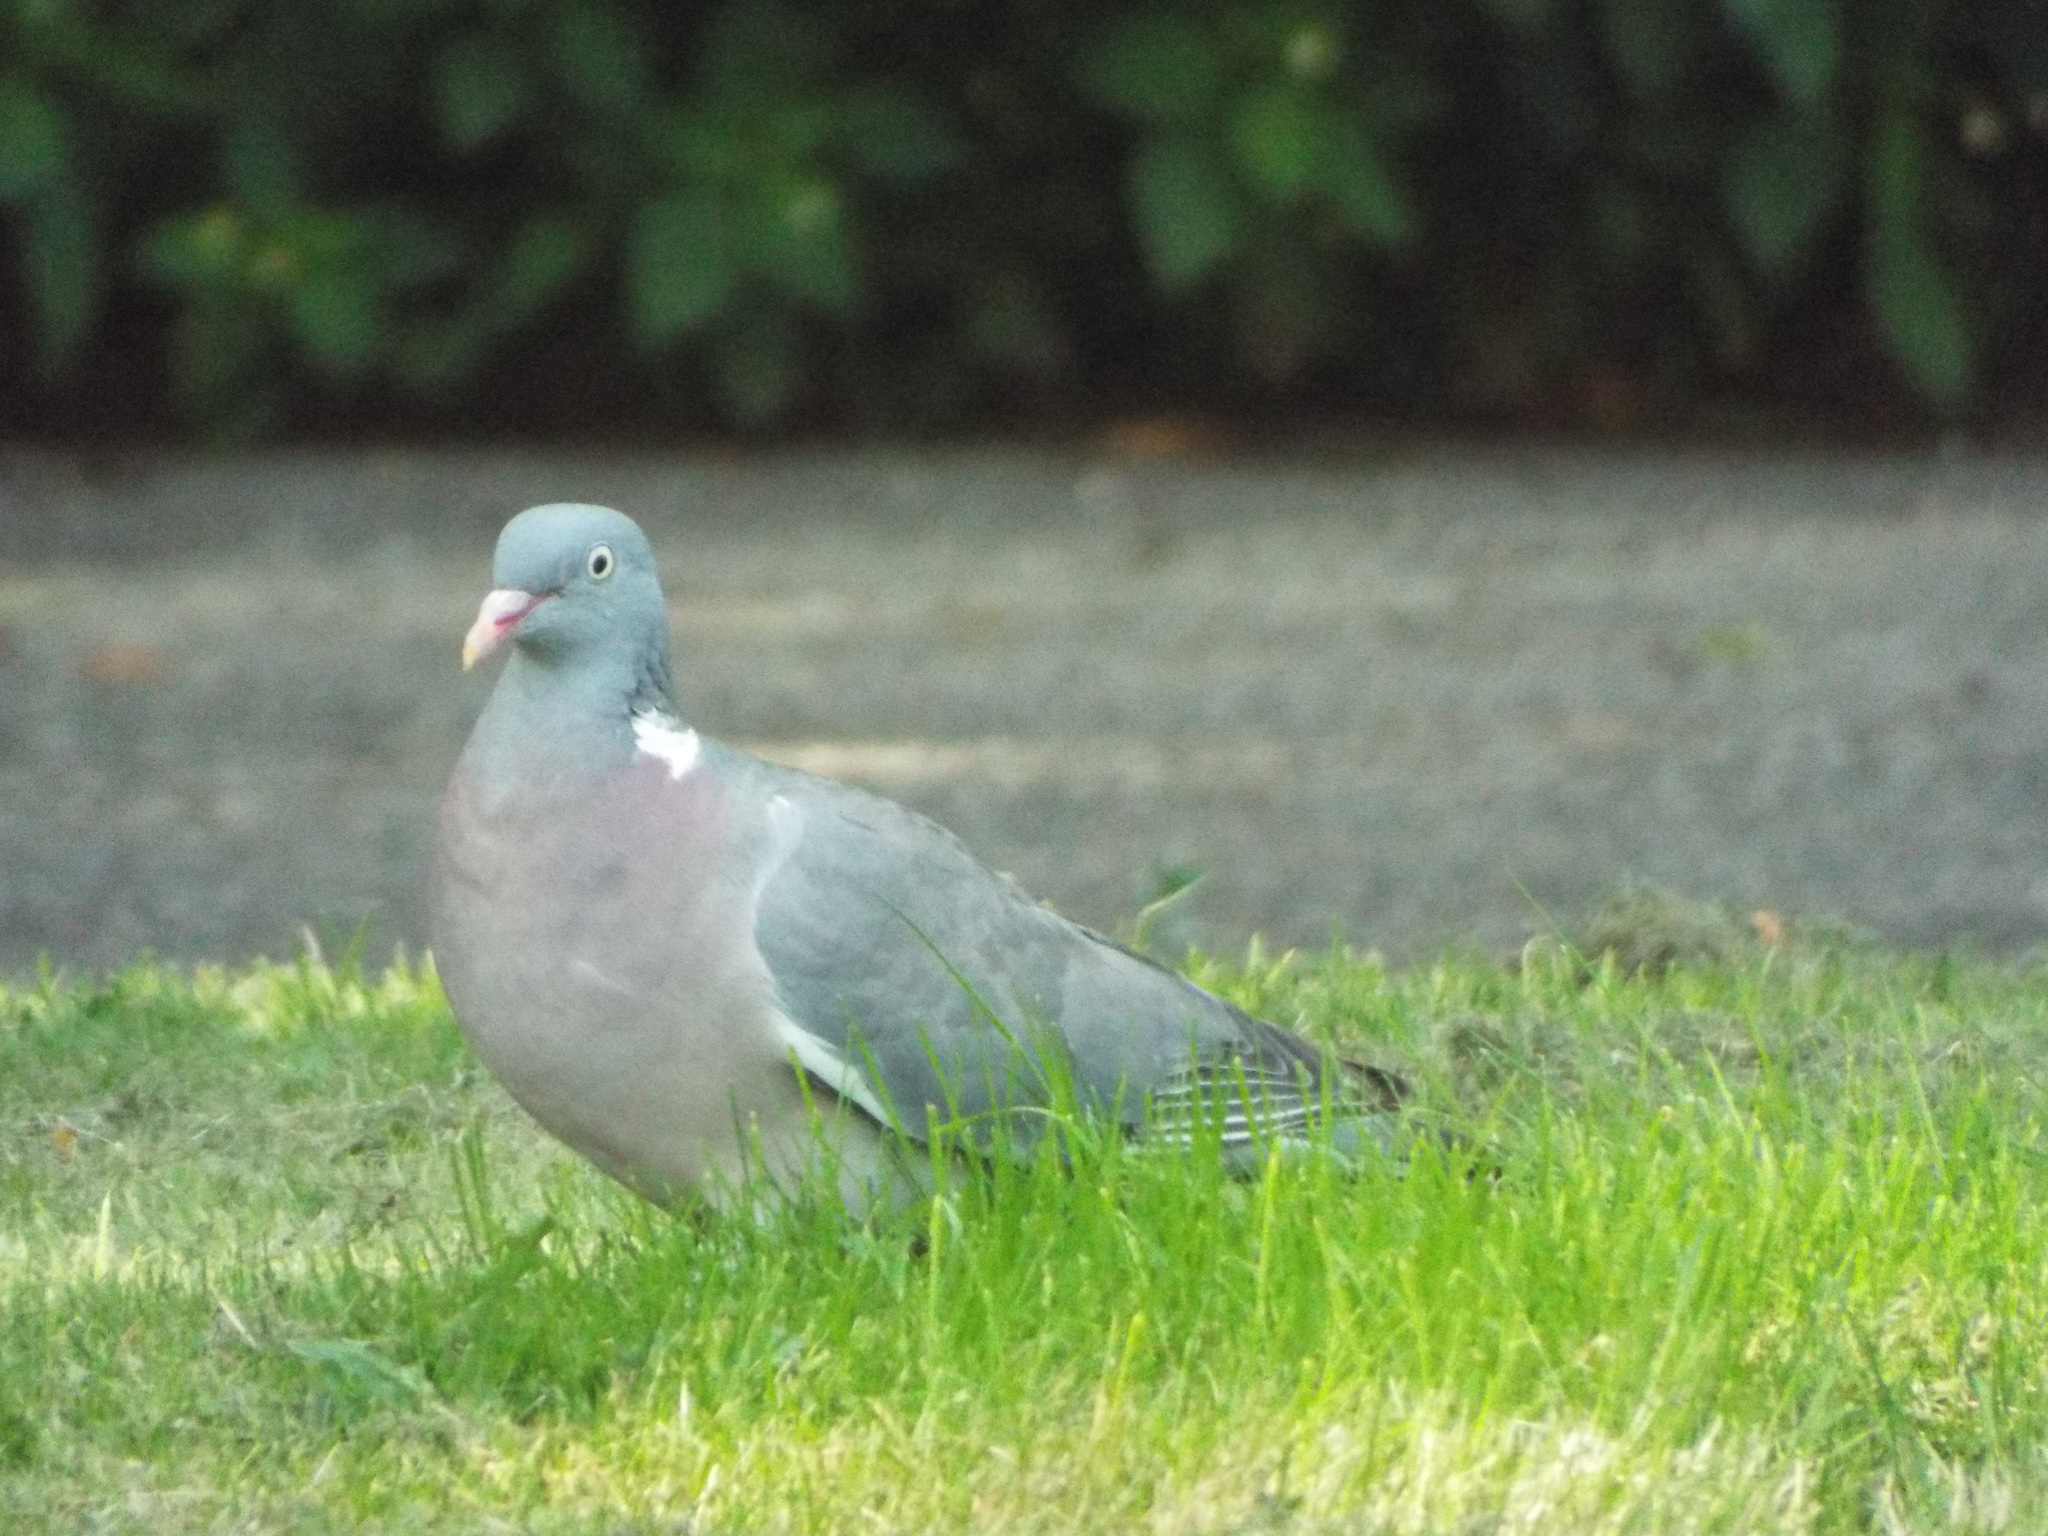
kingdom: Animalia
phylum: Chordata
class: Aves
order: Columbiformes
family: Columbidae
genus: Columba
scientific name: Columba palumbus
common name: Common wood pigeon
